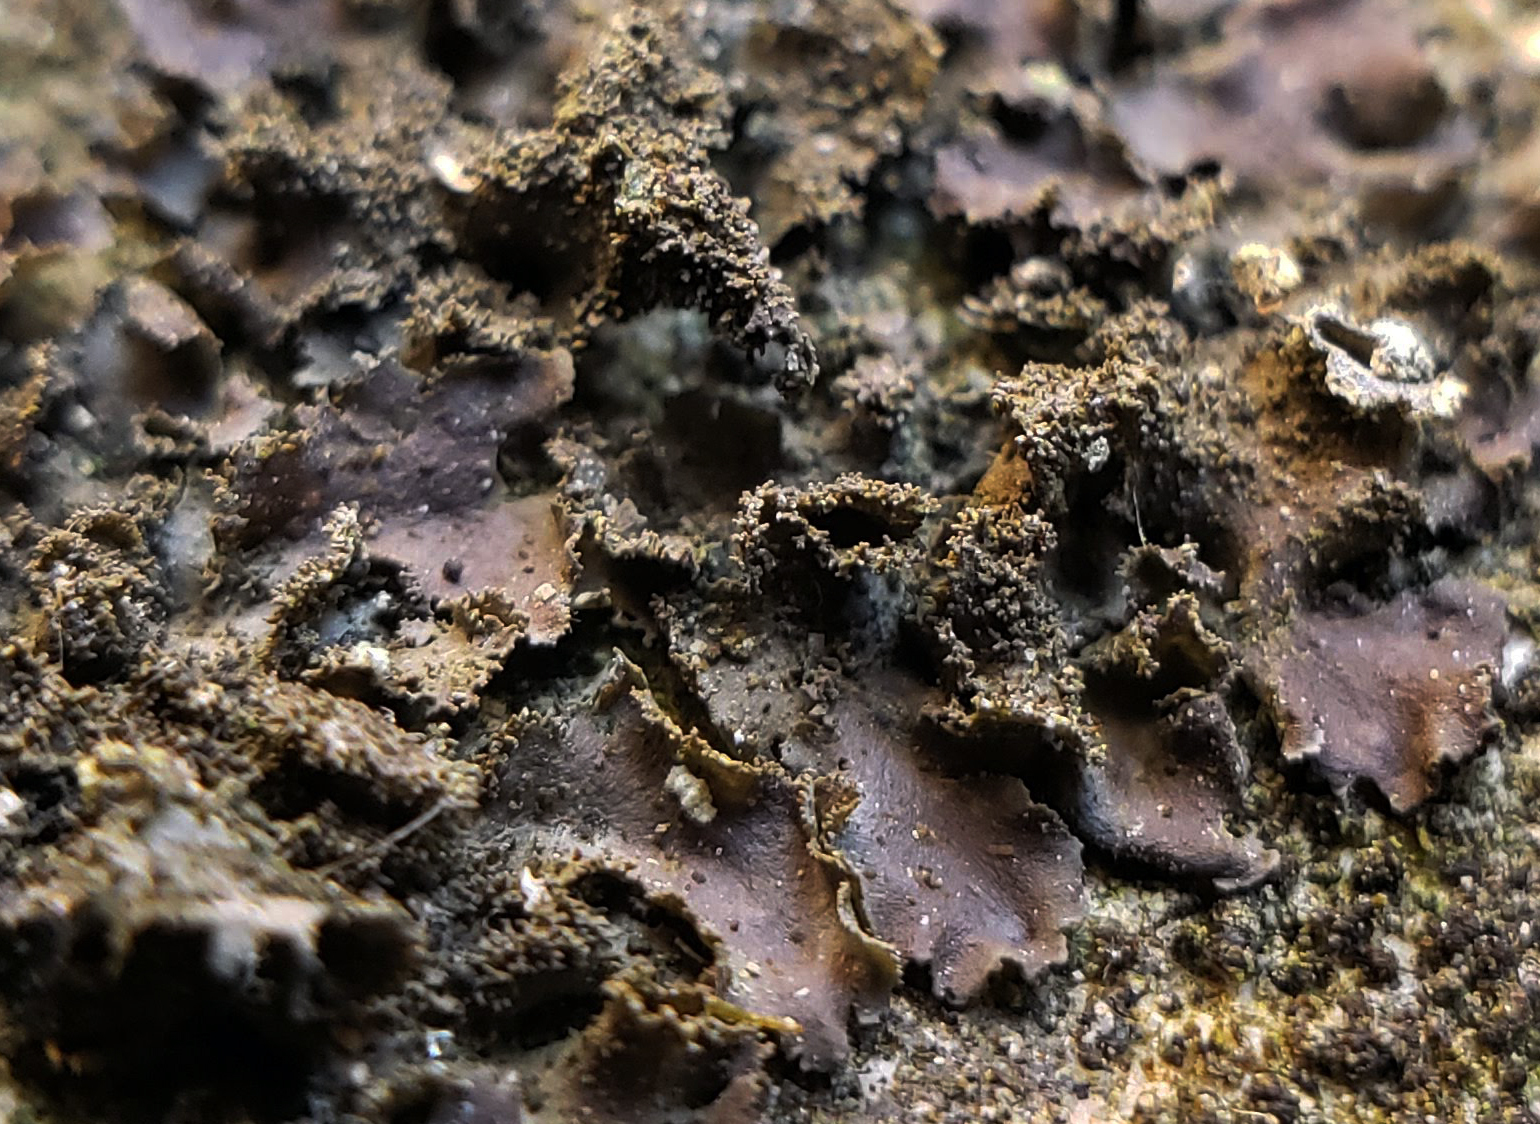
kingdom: Fungi
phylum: Ascomycota
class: Lecanoromycetes
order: Peltigerales
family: Nephromataceae
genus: Nephroma
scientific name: Nephroma helveticum
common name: Fringed kidney lichen
